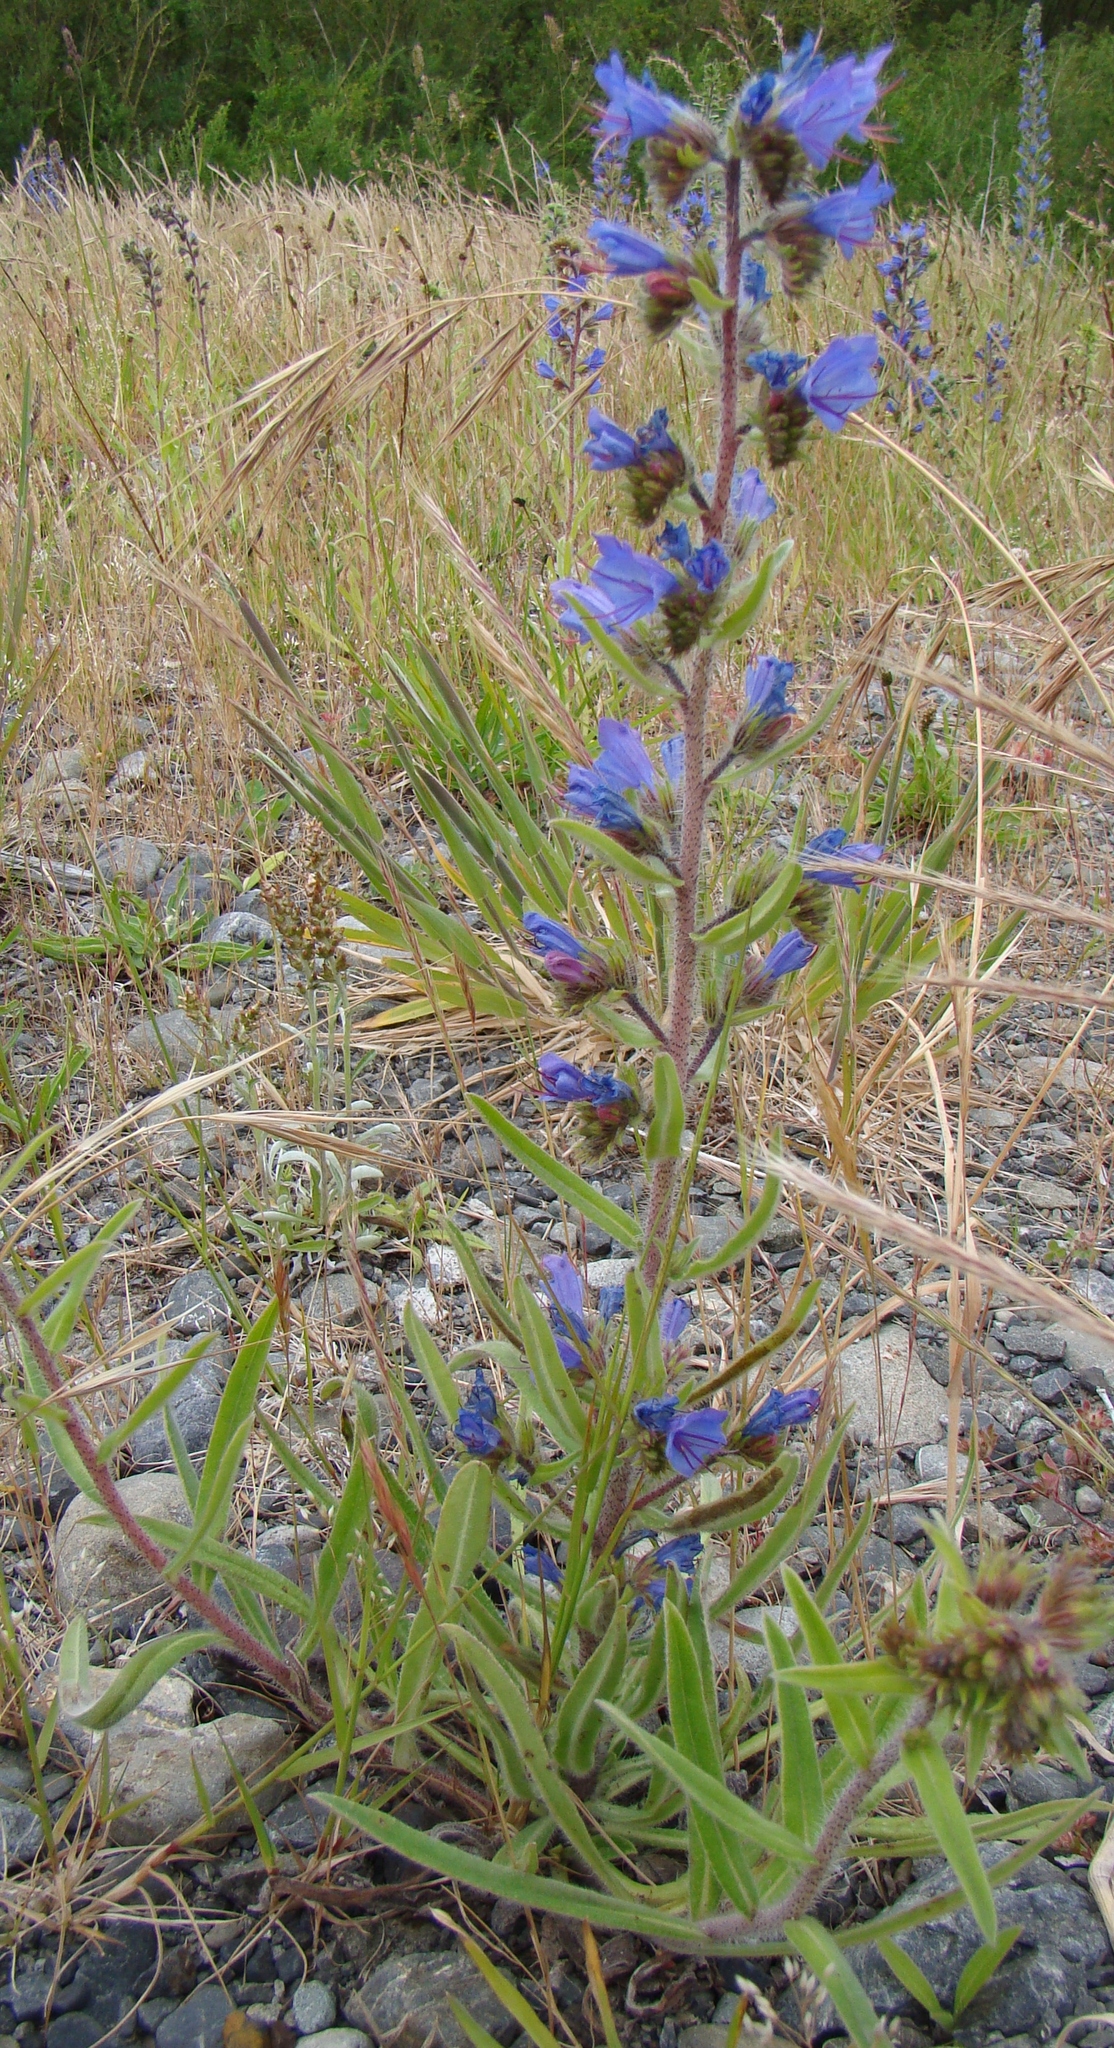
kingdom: Plantae
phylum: Tracheophyta
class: Magnoliopsida
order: Boraginales
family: Boraginaceae
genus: Echium
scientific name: Echium vulgare
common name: Common viper's bugloss
